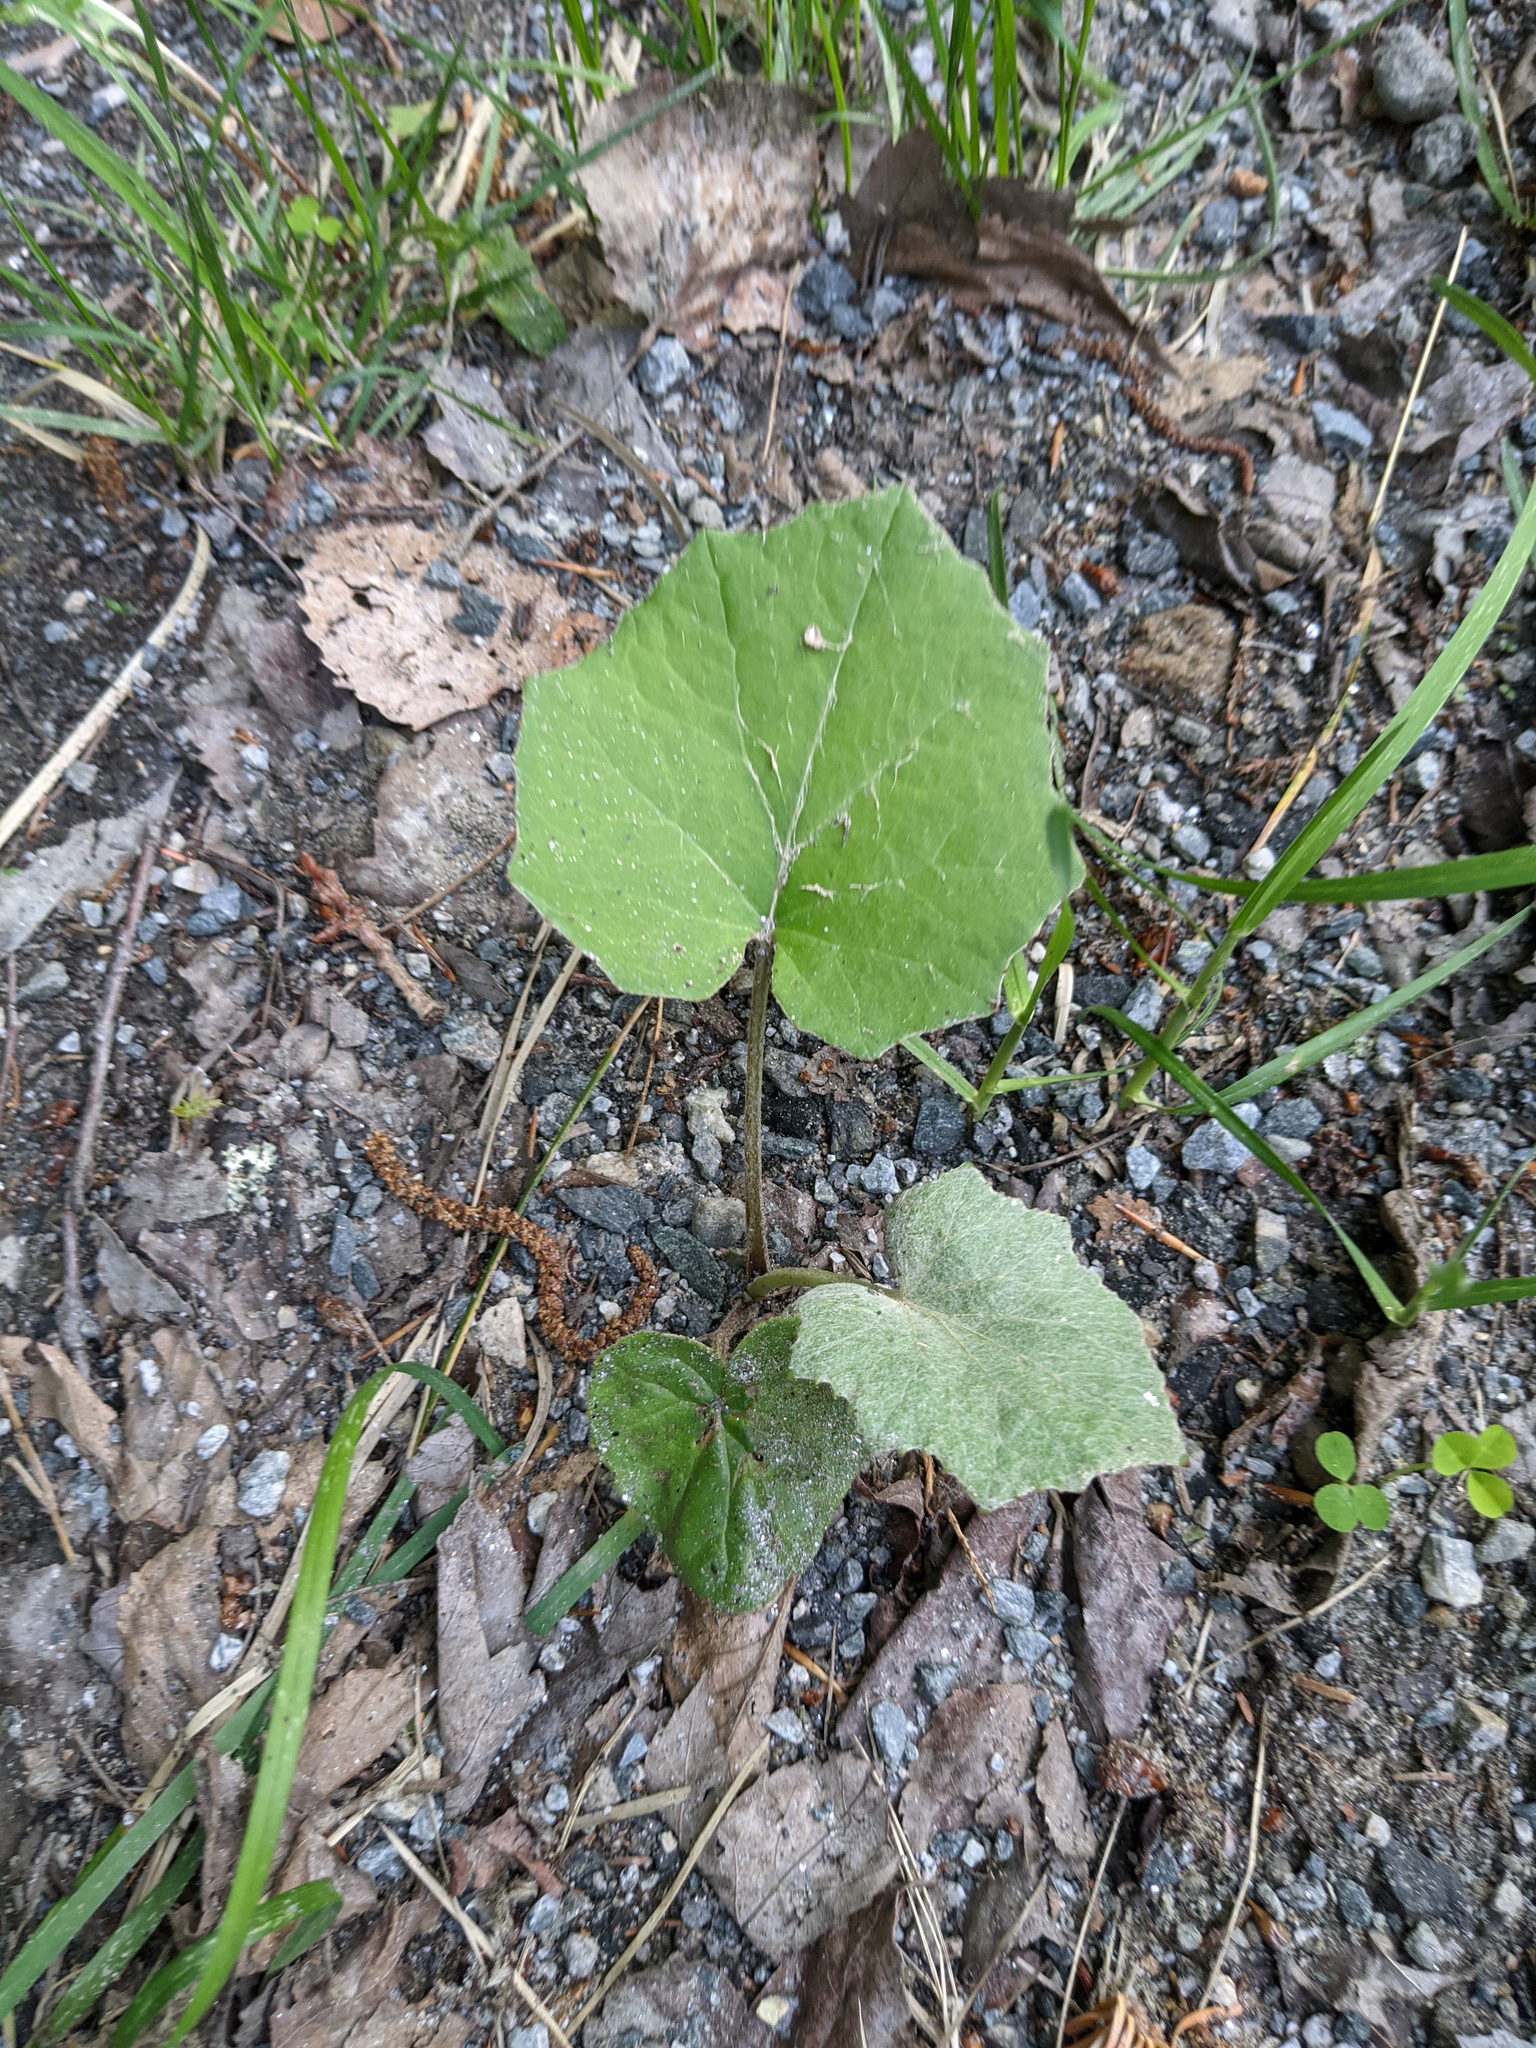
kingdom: Plantae
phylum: Tracheophyta
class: Magnoliopsida
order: Asterales
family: Asteraceae
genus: Tussilago
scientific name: Tussilago farfara
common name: Coltsfoot
